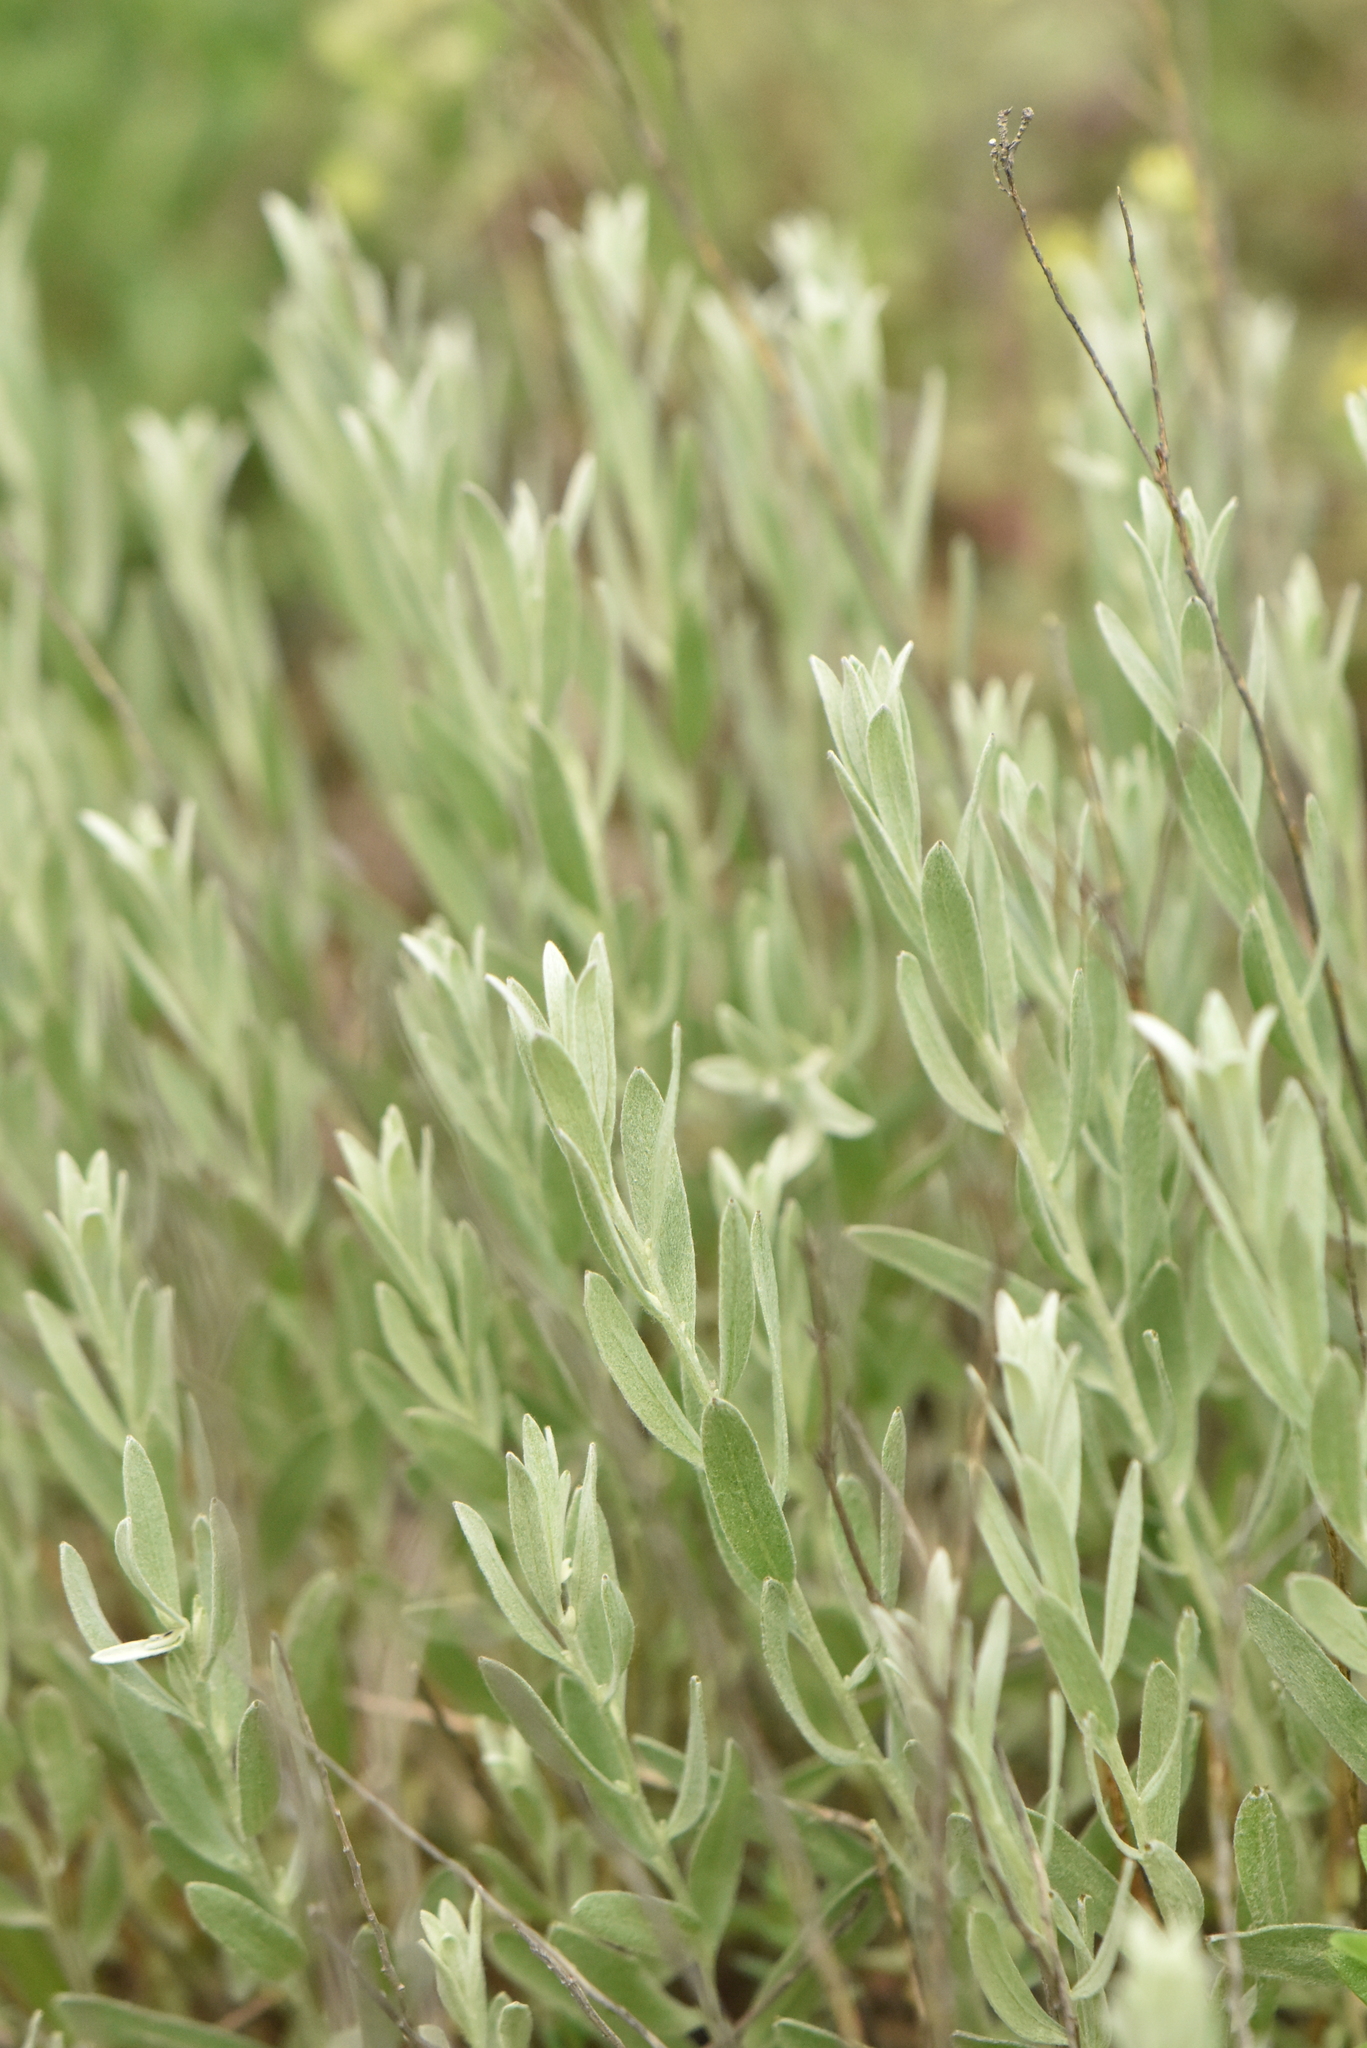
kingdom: Plantae
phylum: Tracheophyta
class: Magnoliopsida
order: Asterales
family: Asteraceae
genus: Galatella
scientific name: Galatella villosa
